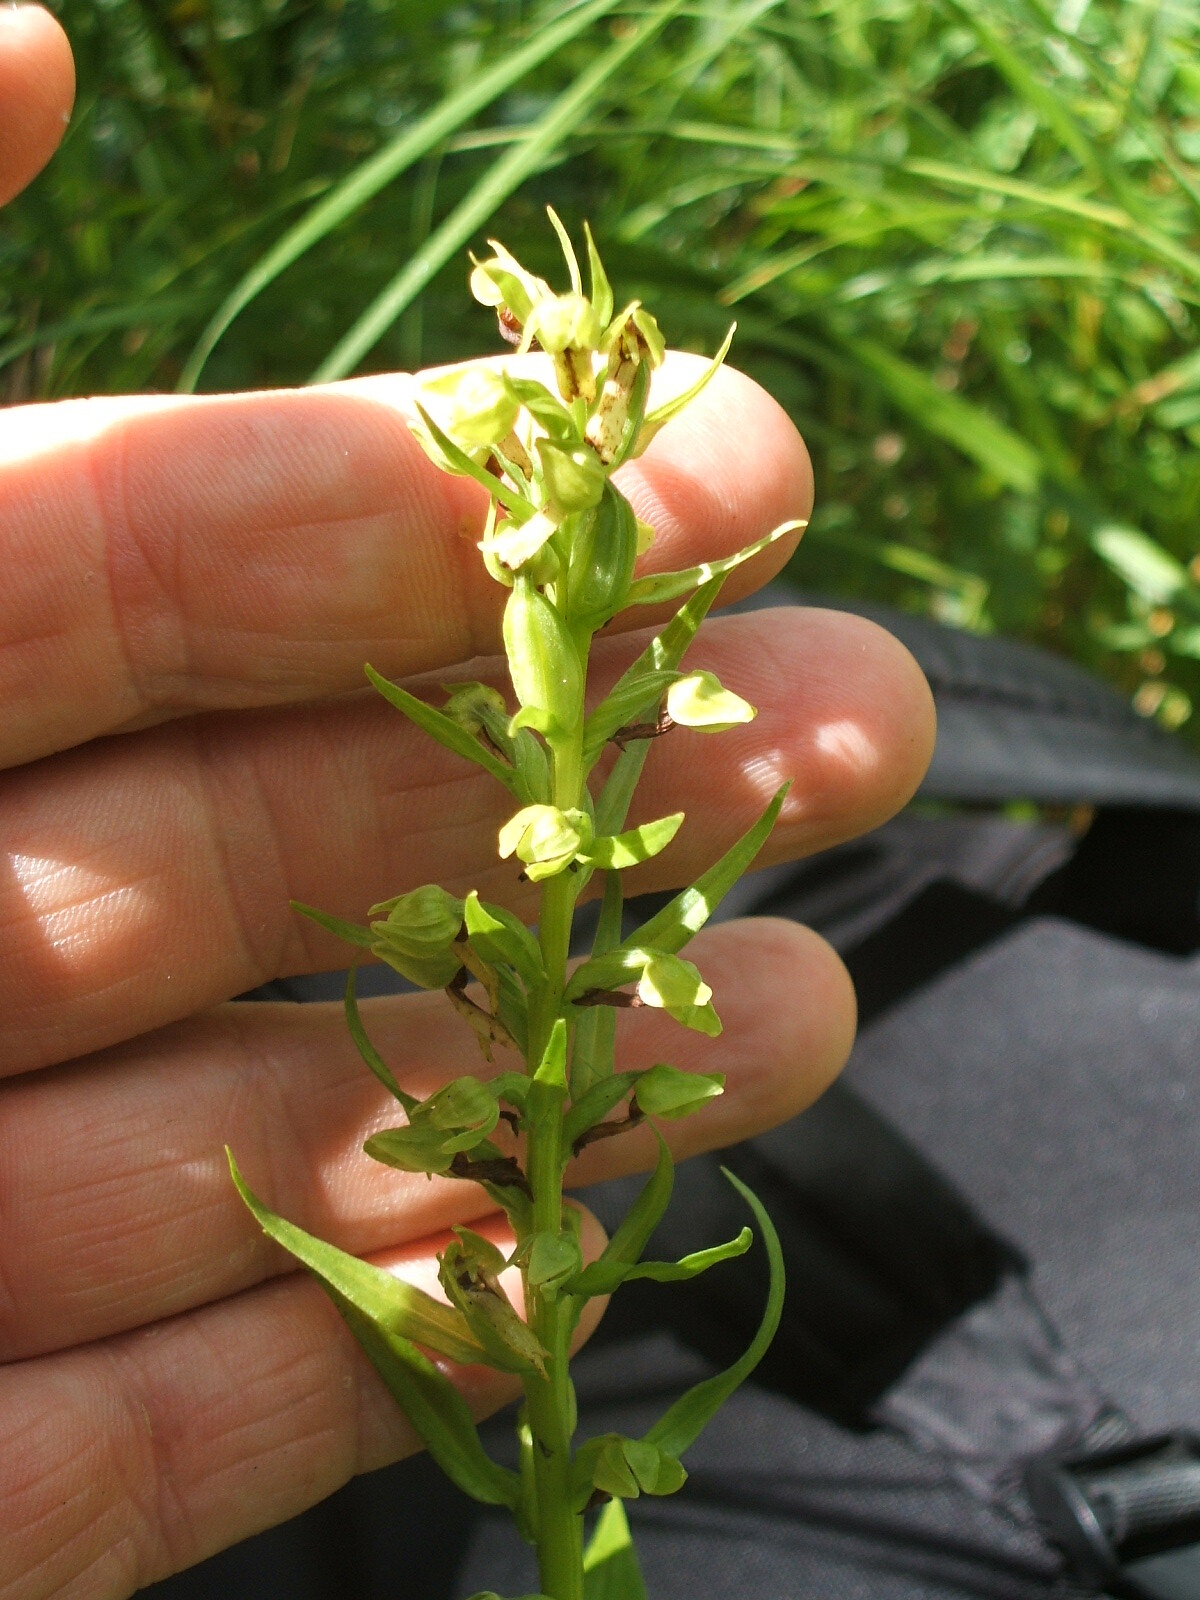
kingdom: Plantae
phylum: Tracheophyta
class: Liliopsida
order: Asparagales
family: Orchidaceae
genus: Dactylorhiza
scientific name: Dactylorhiza viridis
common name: Longbract frog orchid
